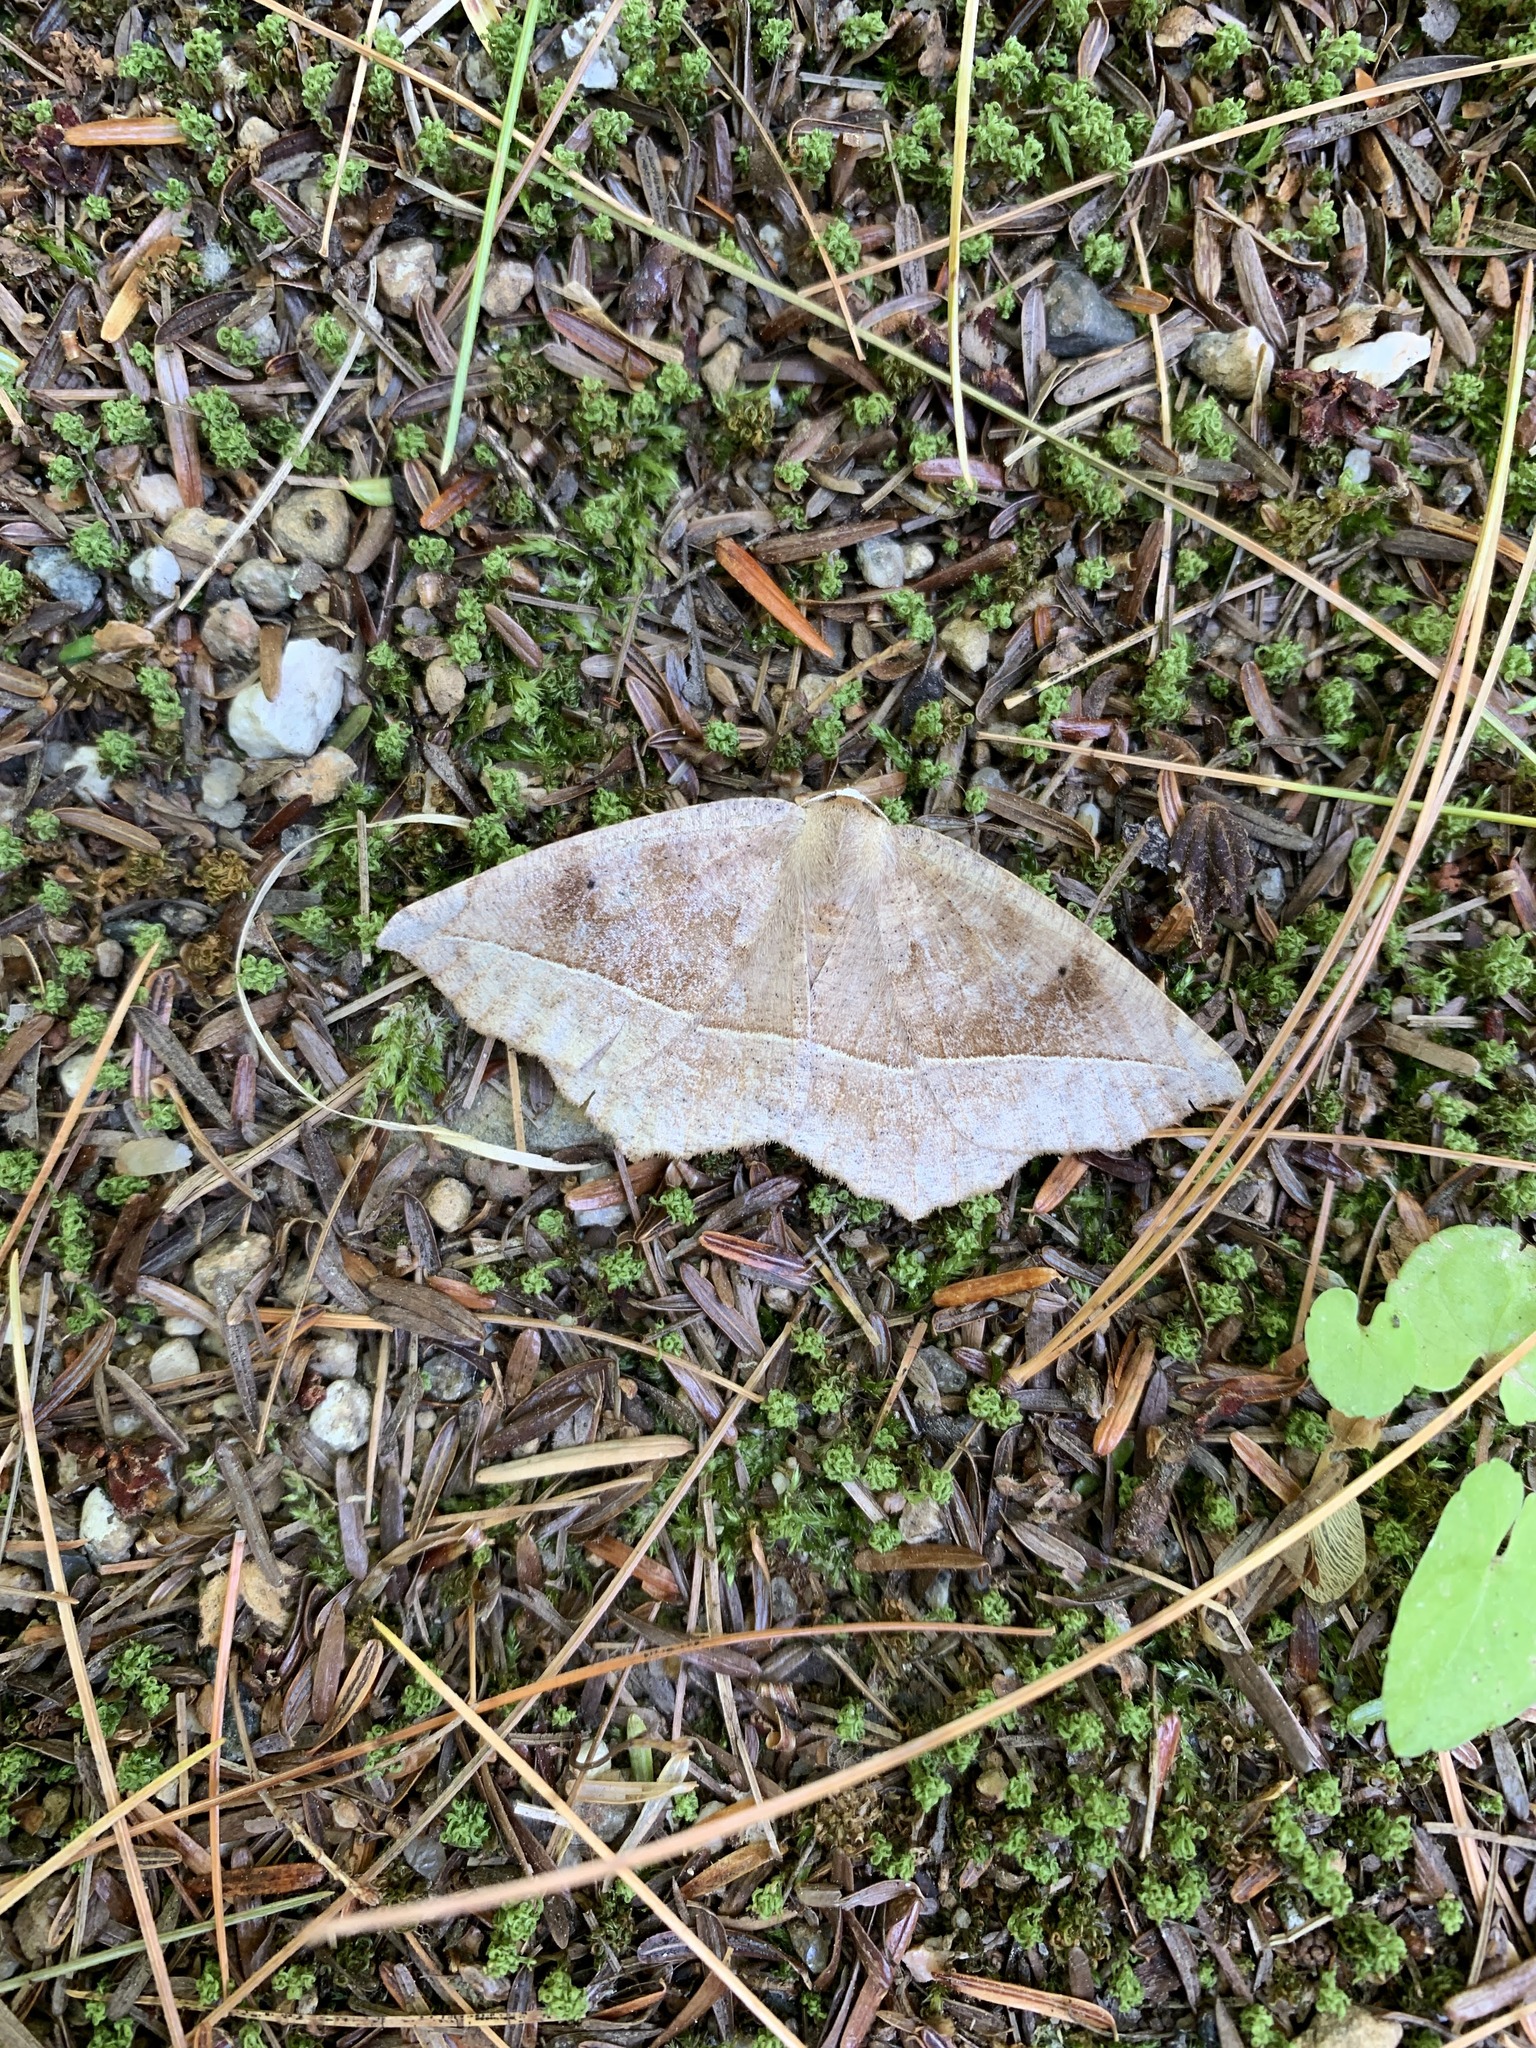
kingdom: Animalia
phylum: Arthropoda
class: Insecta
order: Lepidoptera
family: Geometridae
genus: Eutrapela
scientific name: Eutrapela clemataria
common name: Curved-toothed geometer
